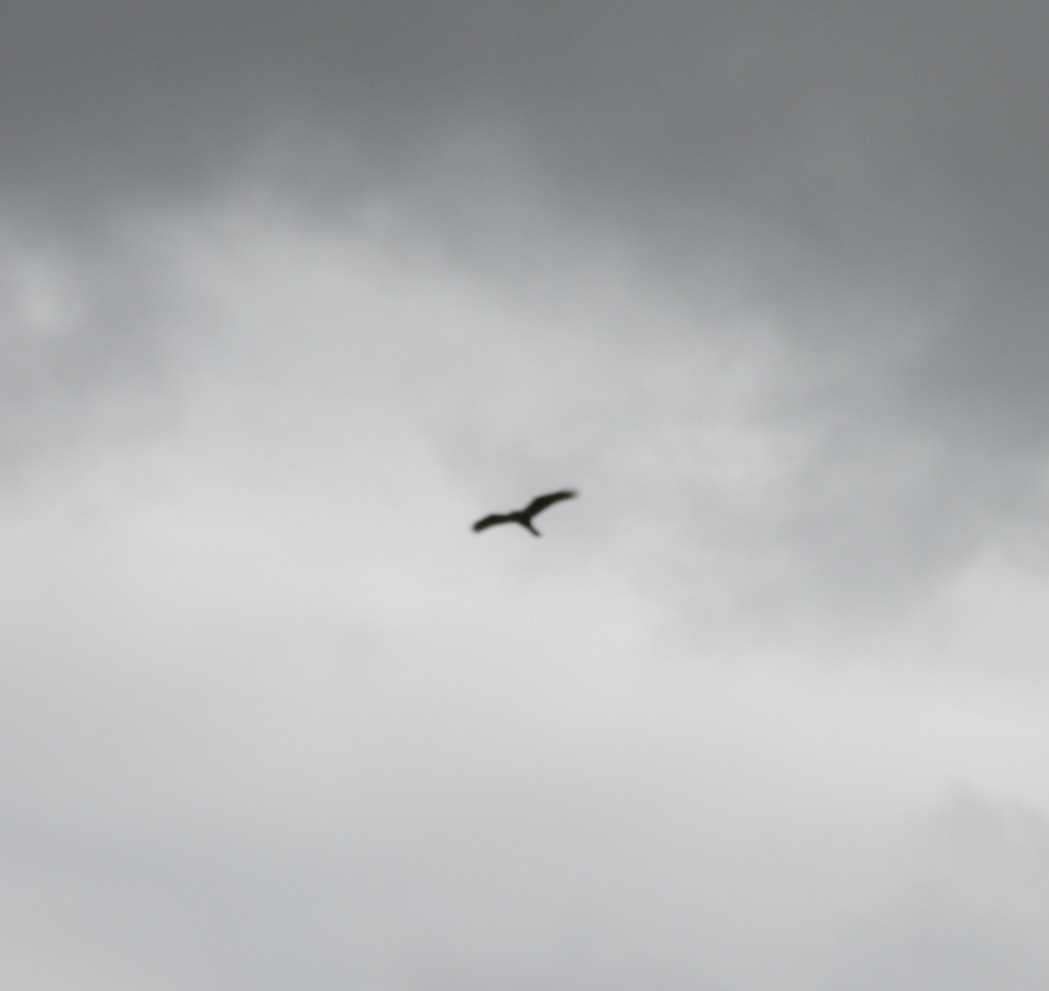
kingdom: Animalia
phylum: Chordata
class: Aves
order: Accipitriformes
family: Accipitridae
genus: Circus
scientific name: Circus aeruginosus
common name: Western marsh harrier
